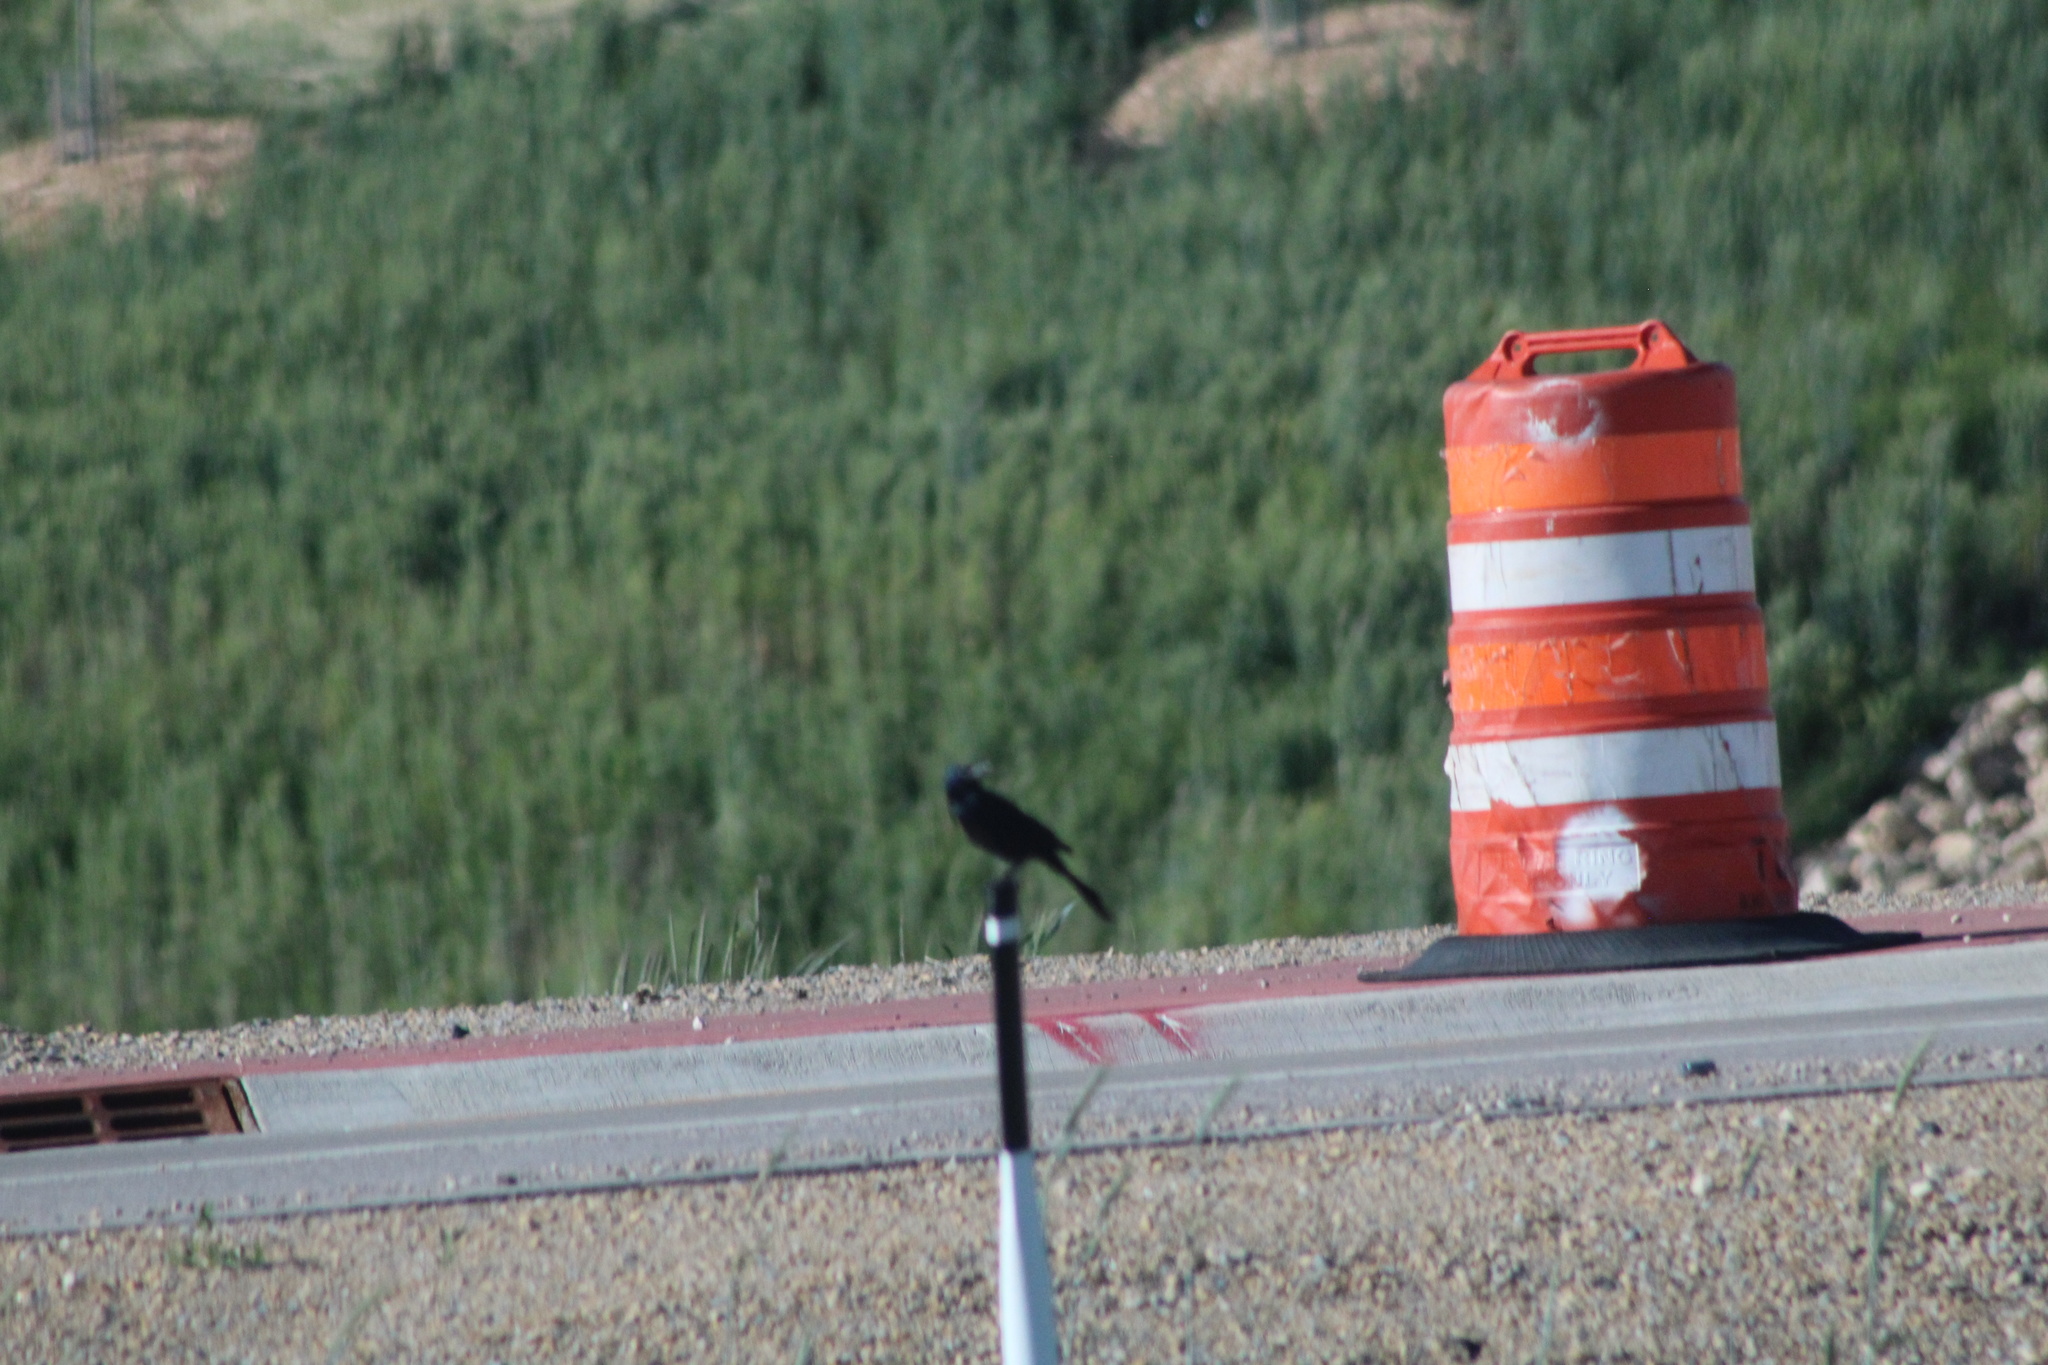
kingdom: Animalia
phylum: Chordata
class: Aves
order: Passeriformes
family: Icteridae
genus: Quiscalus
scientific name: Quiscalus quiscula
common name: Common grackle
